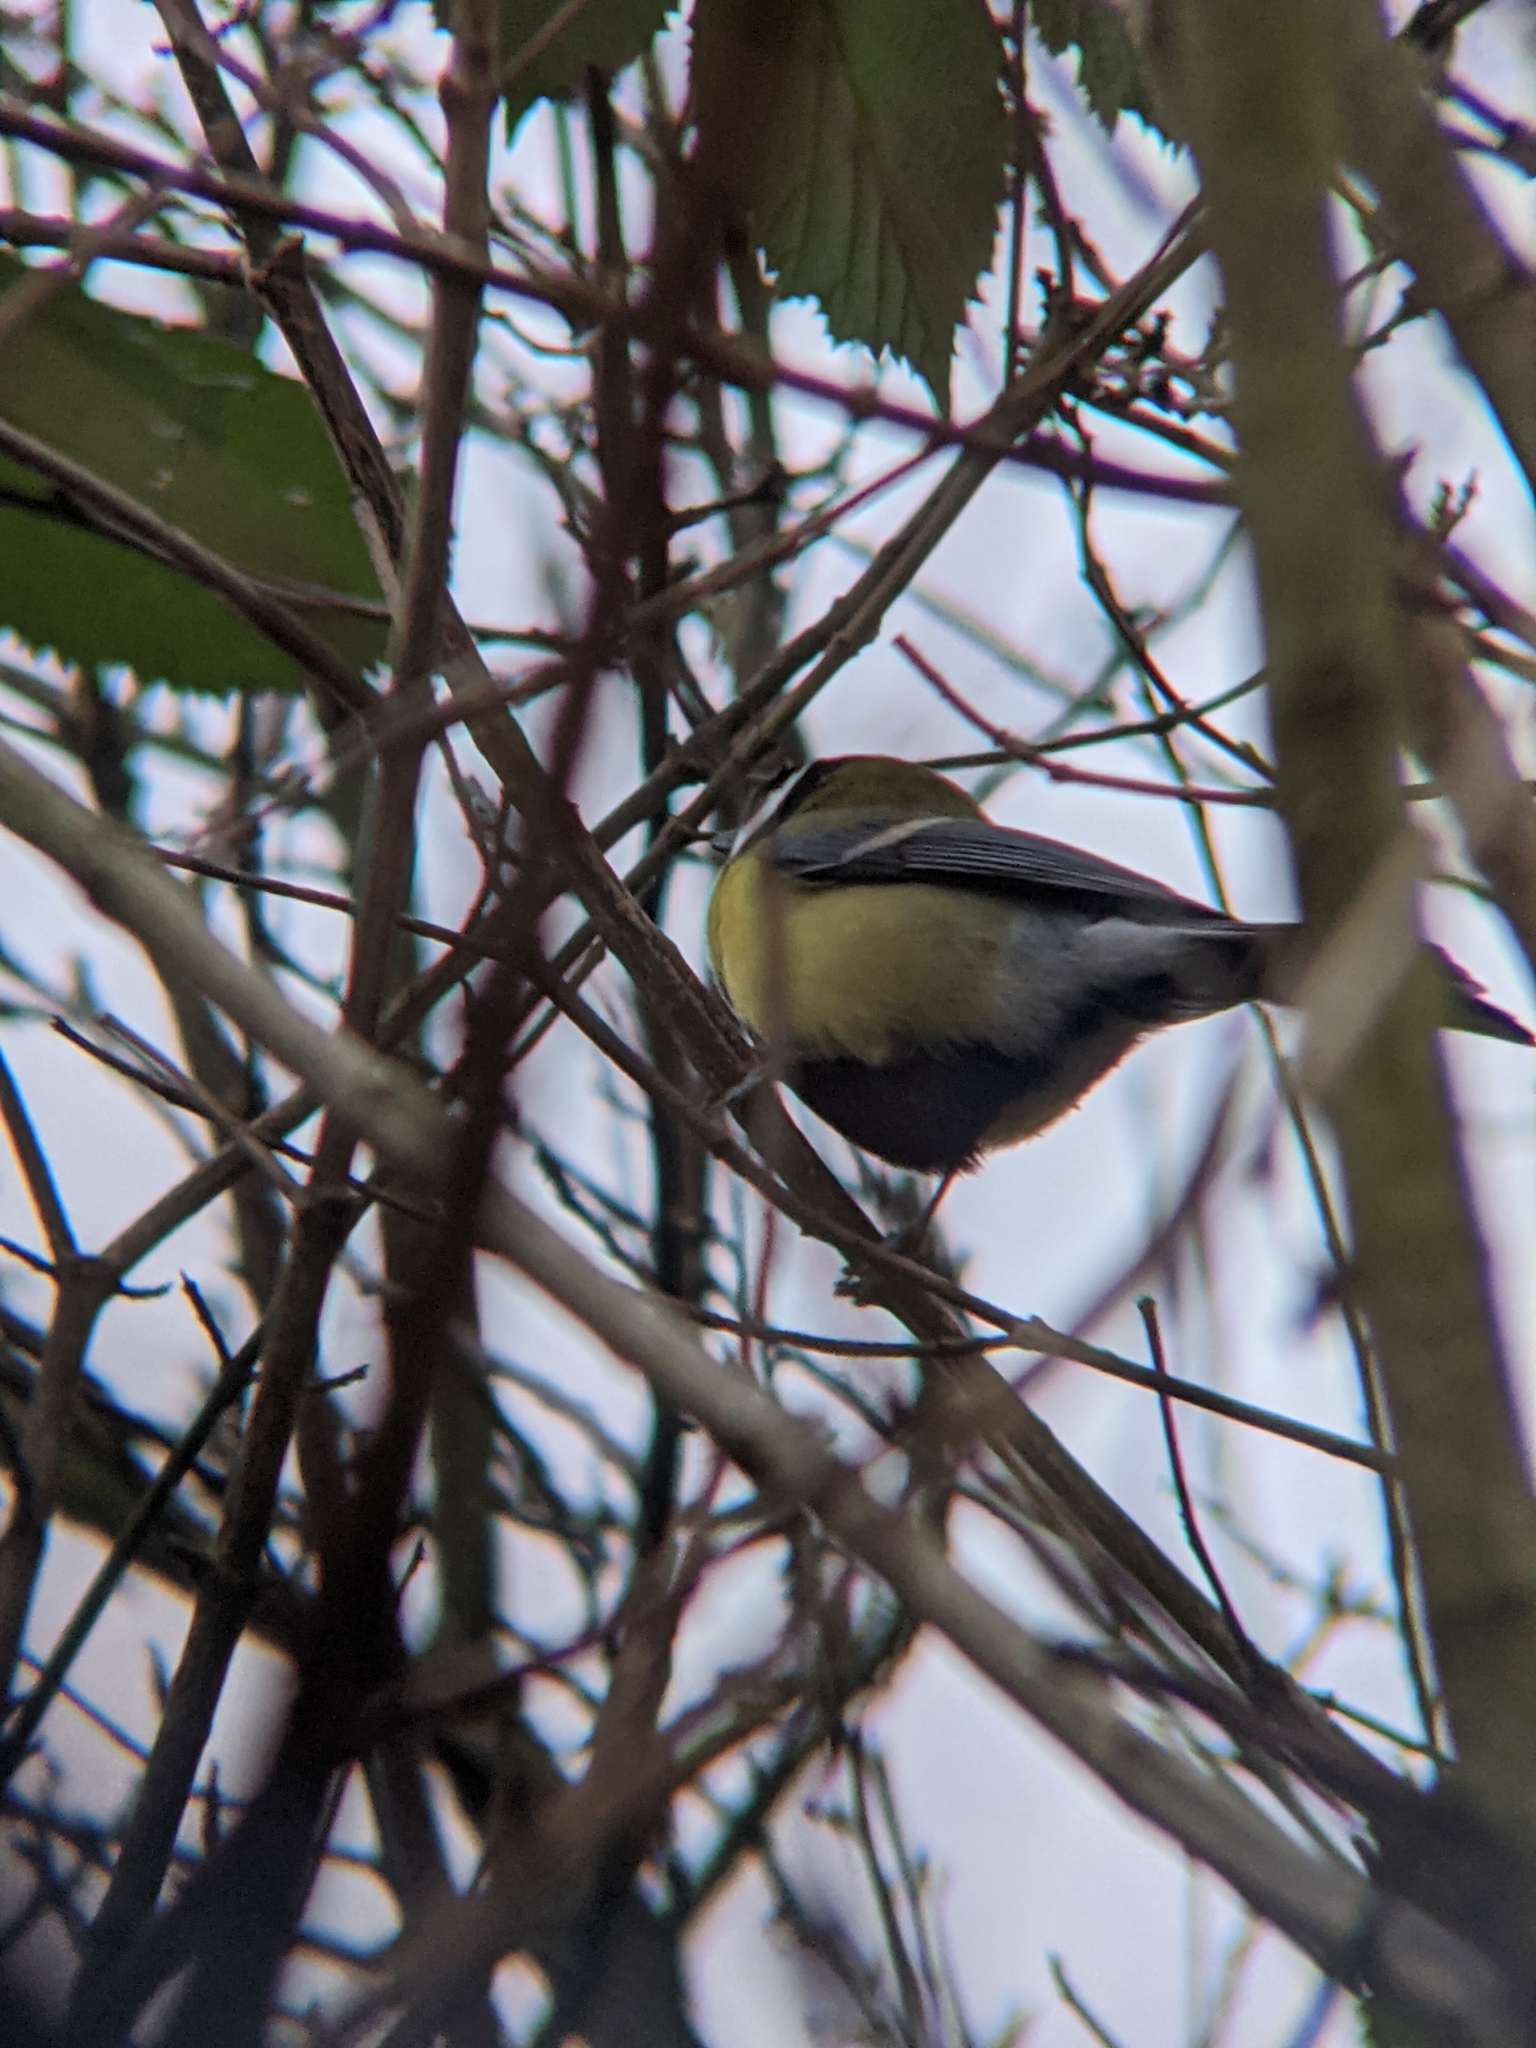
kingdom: Animalia
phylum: Chordata
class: Aves
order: Passeriformes
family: Paridae
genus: Parus
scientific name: Parus major
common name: Great tit
